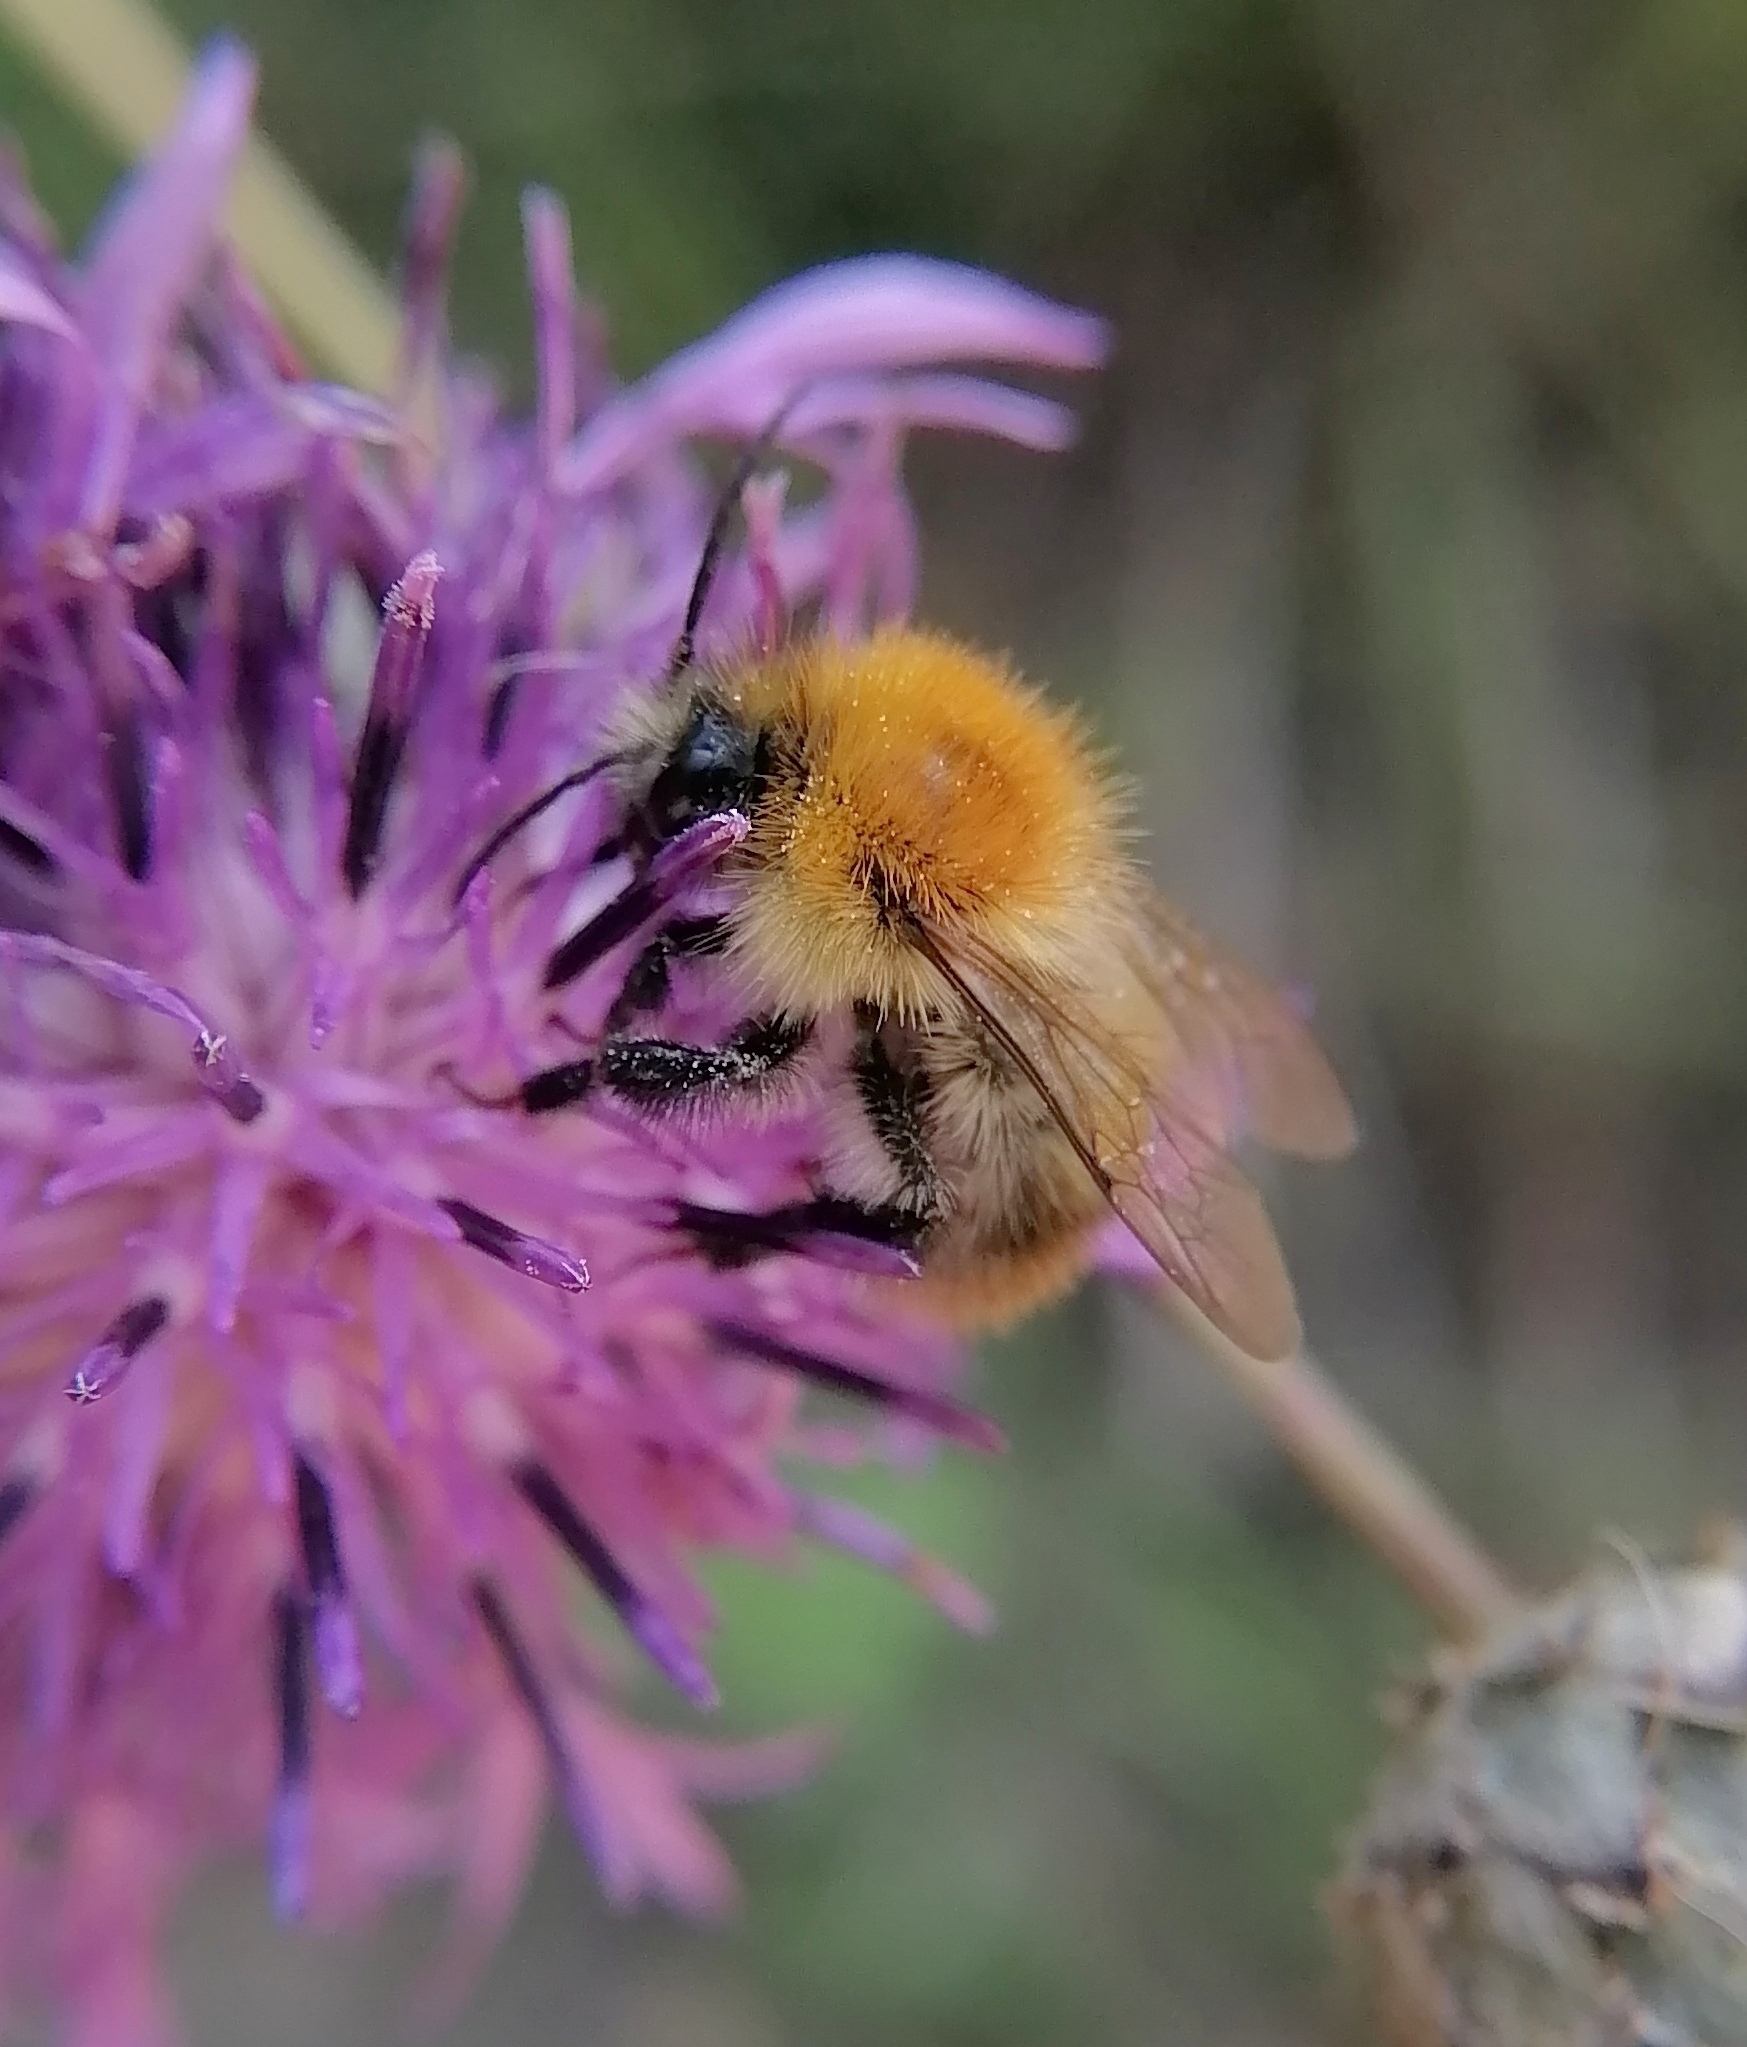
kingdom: Animalia
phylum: Arthropoda
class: Insecta
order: Hymenoptera
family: Apidae
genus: Bombus
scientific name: Bombus pascuorum
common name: Common carder bee
